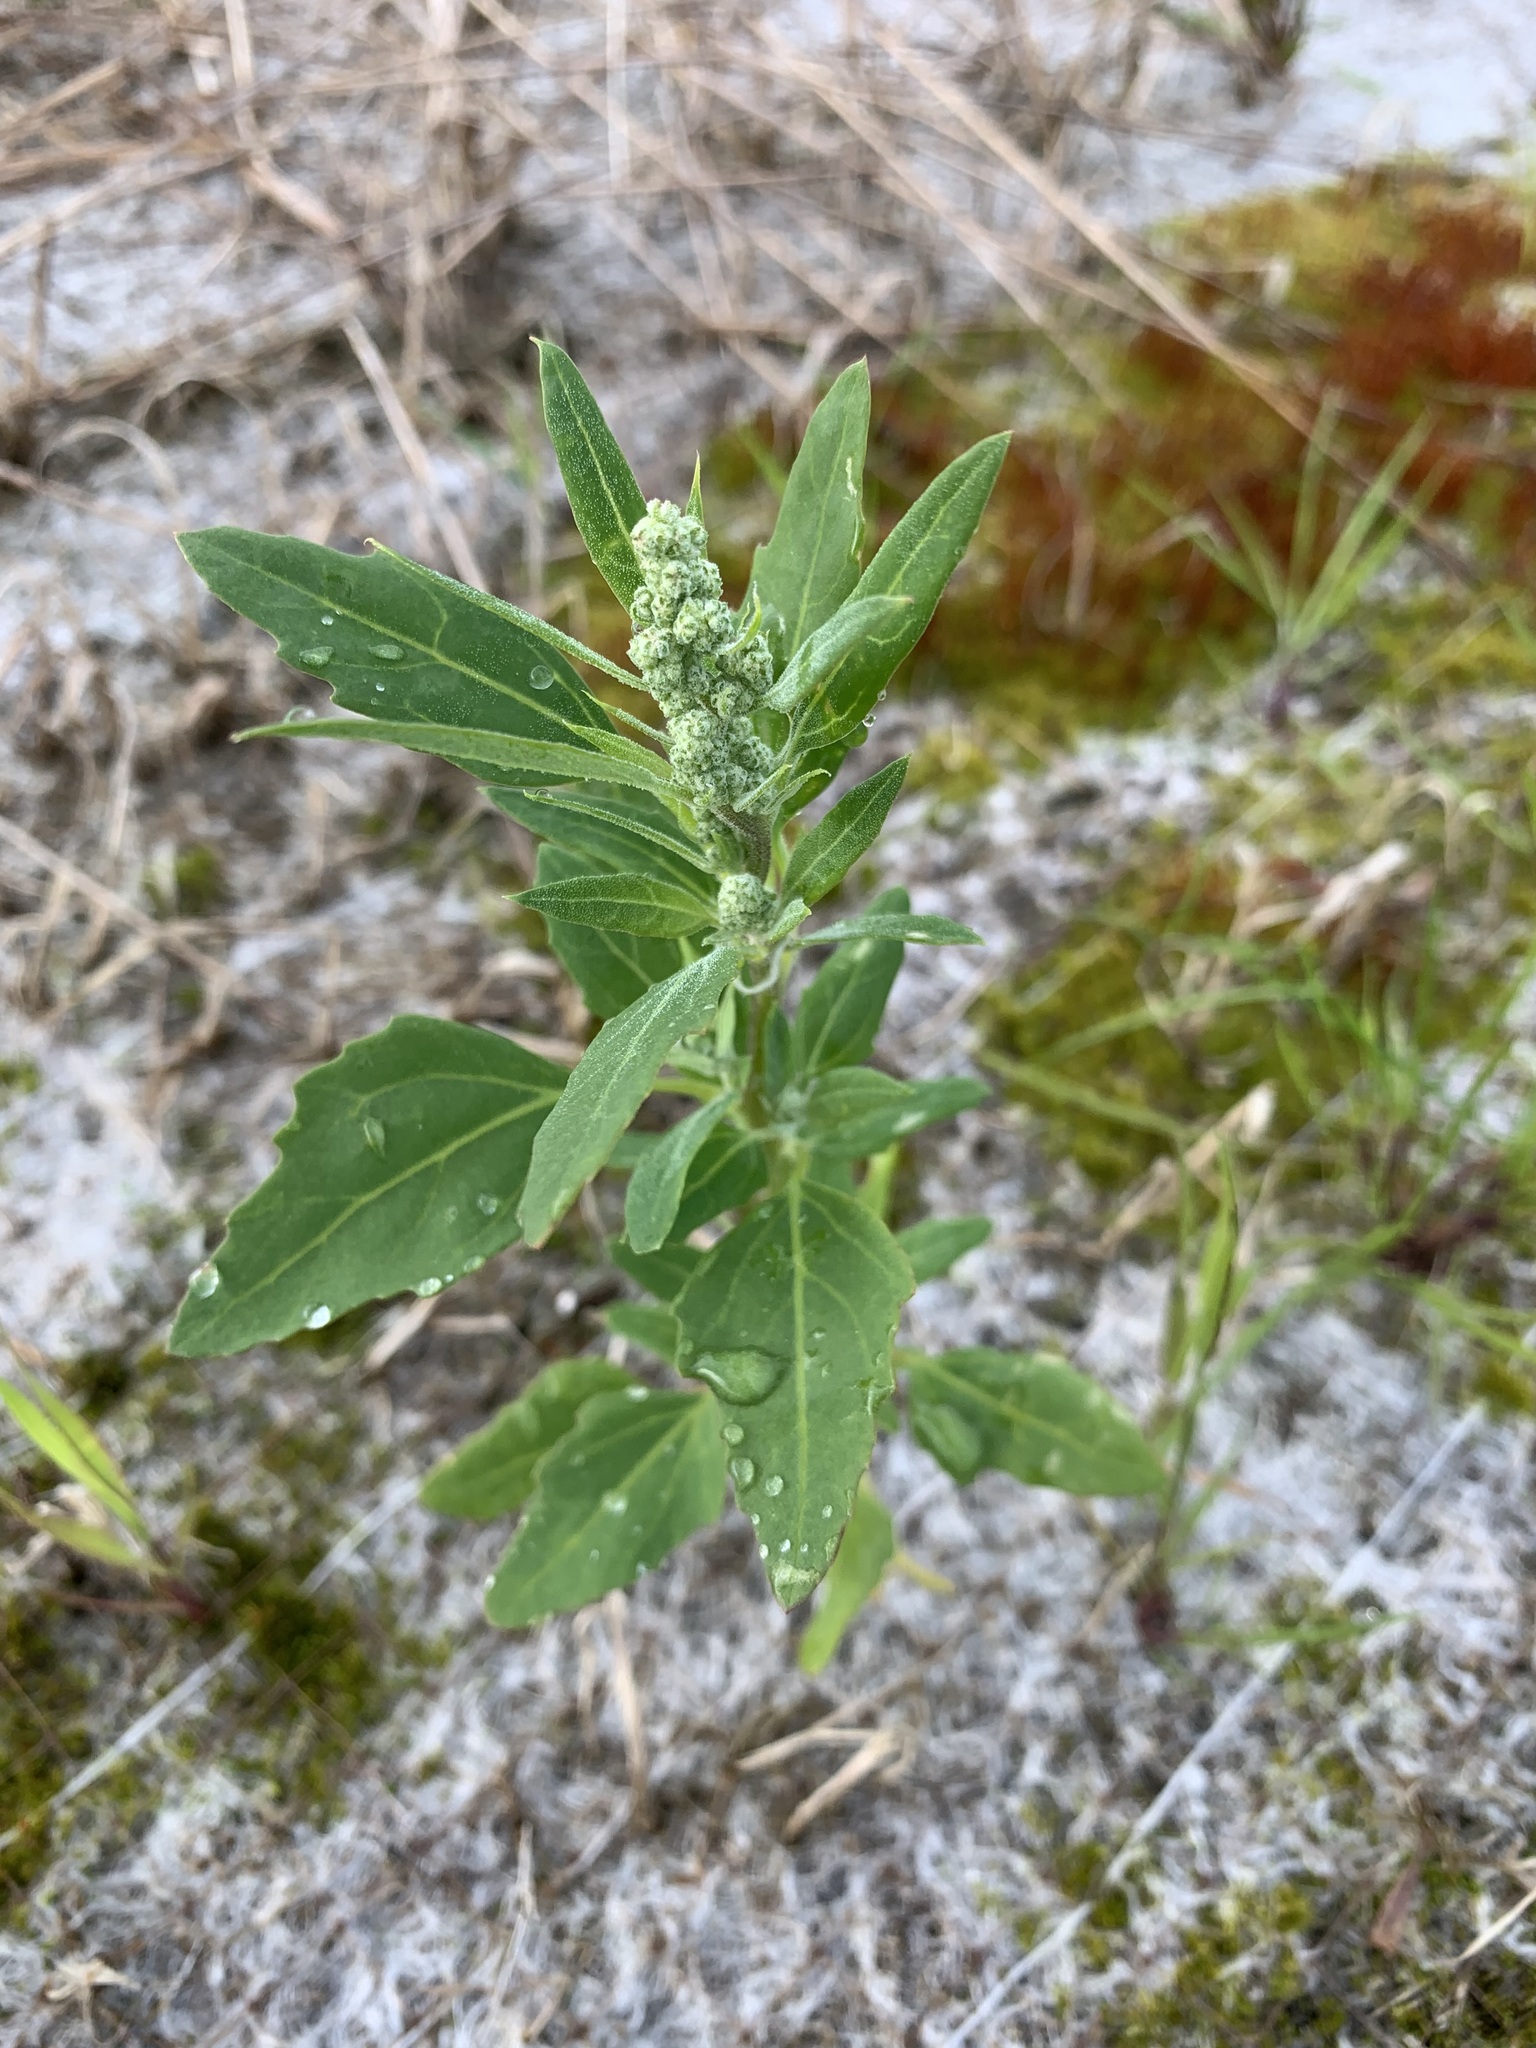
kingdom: Plantae
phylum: Tracheophyta
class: Magnoliopsida
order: Caryophyllales
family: Amaranthaceae
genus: Chenopodium
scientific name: Chenopodium album
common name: Fat-hen
